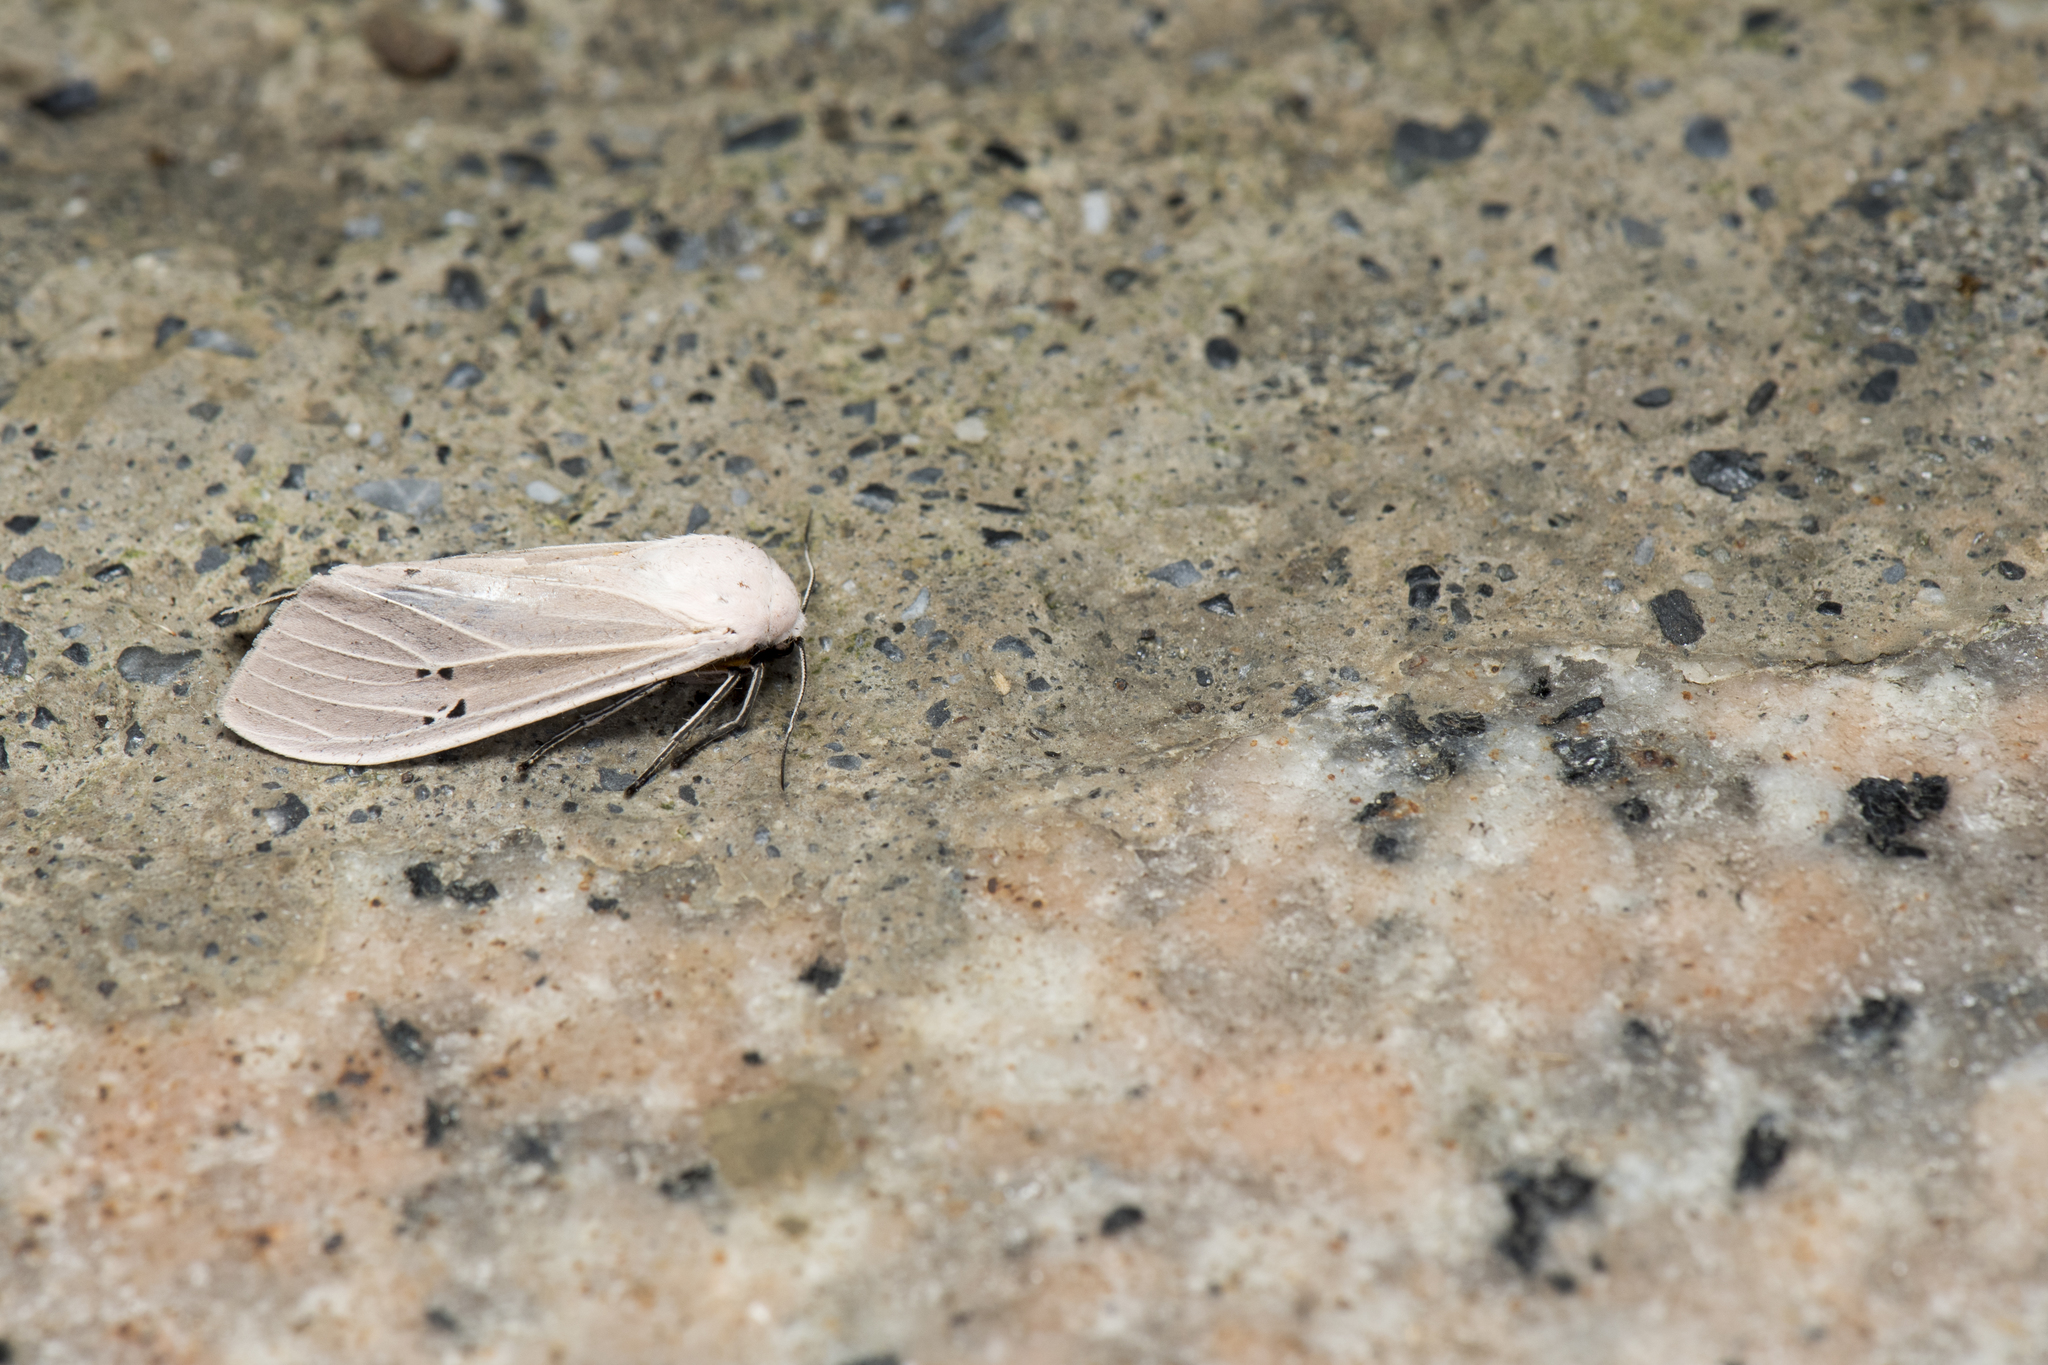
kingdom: Animalia
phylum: Arthropoda
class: Insecta
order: Lepidoptera
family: Erebidae
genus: Creatonotos
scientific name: Creatonotos transiens
